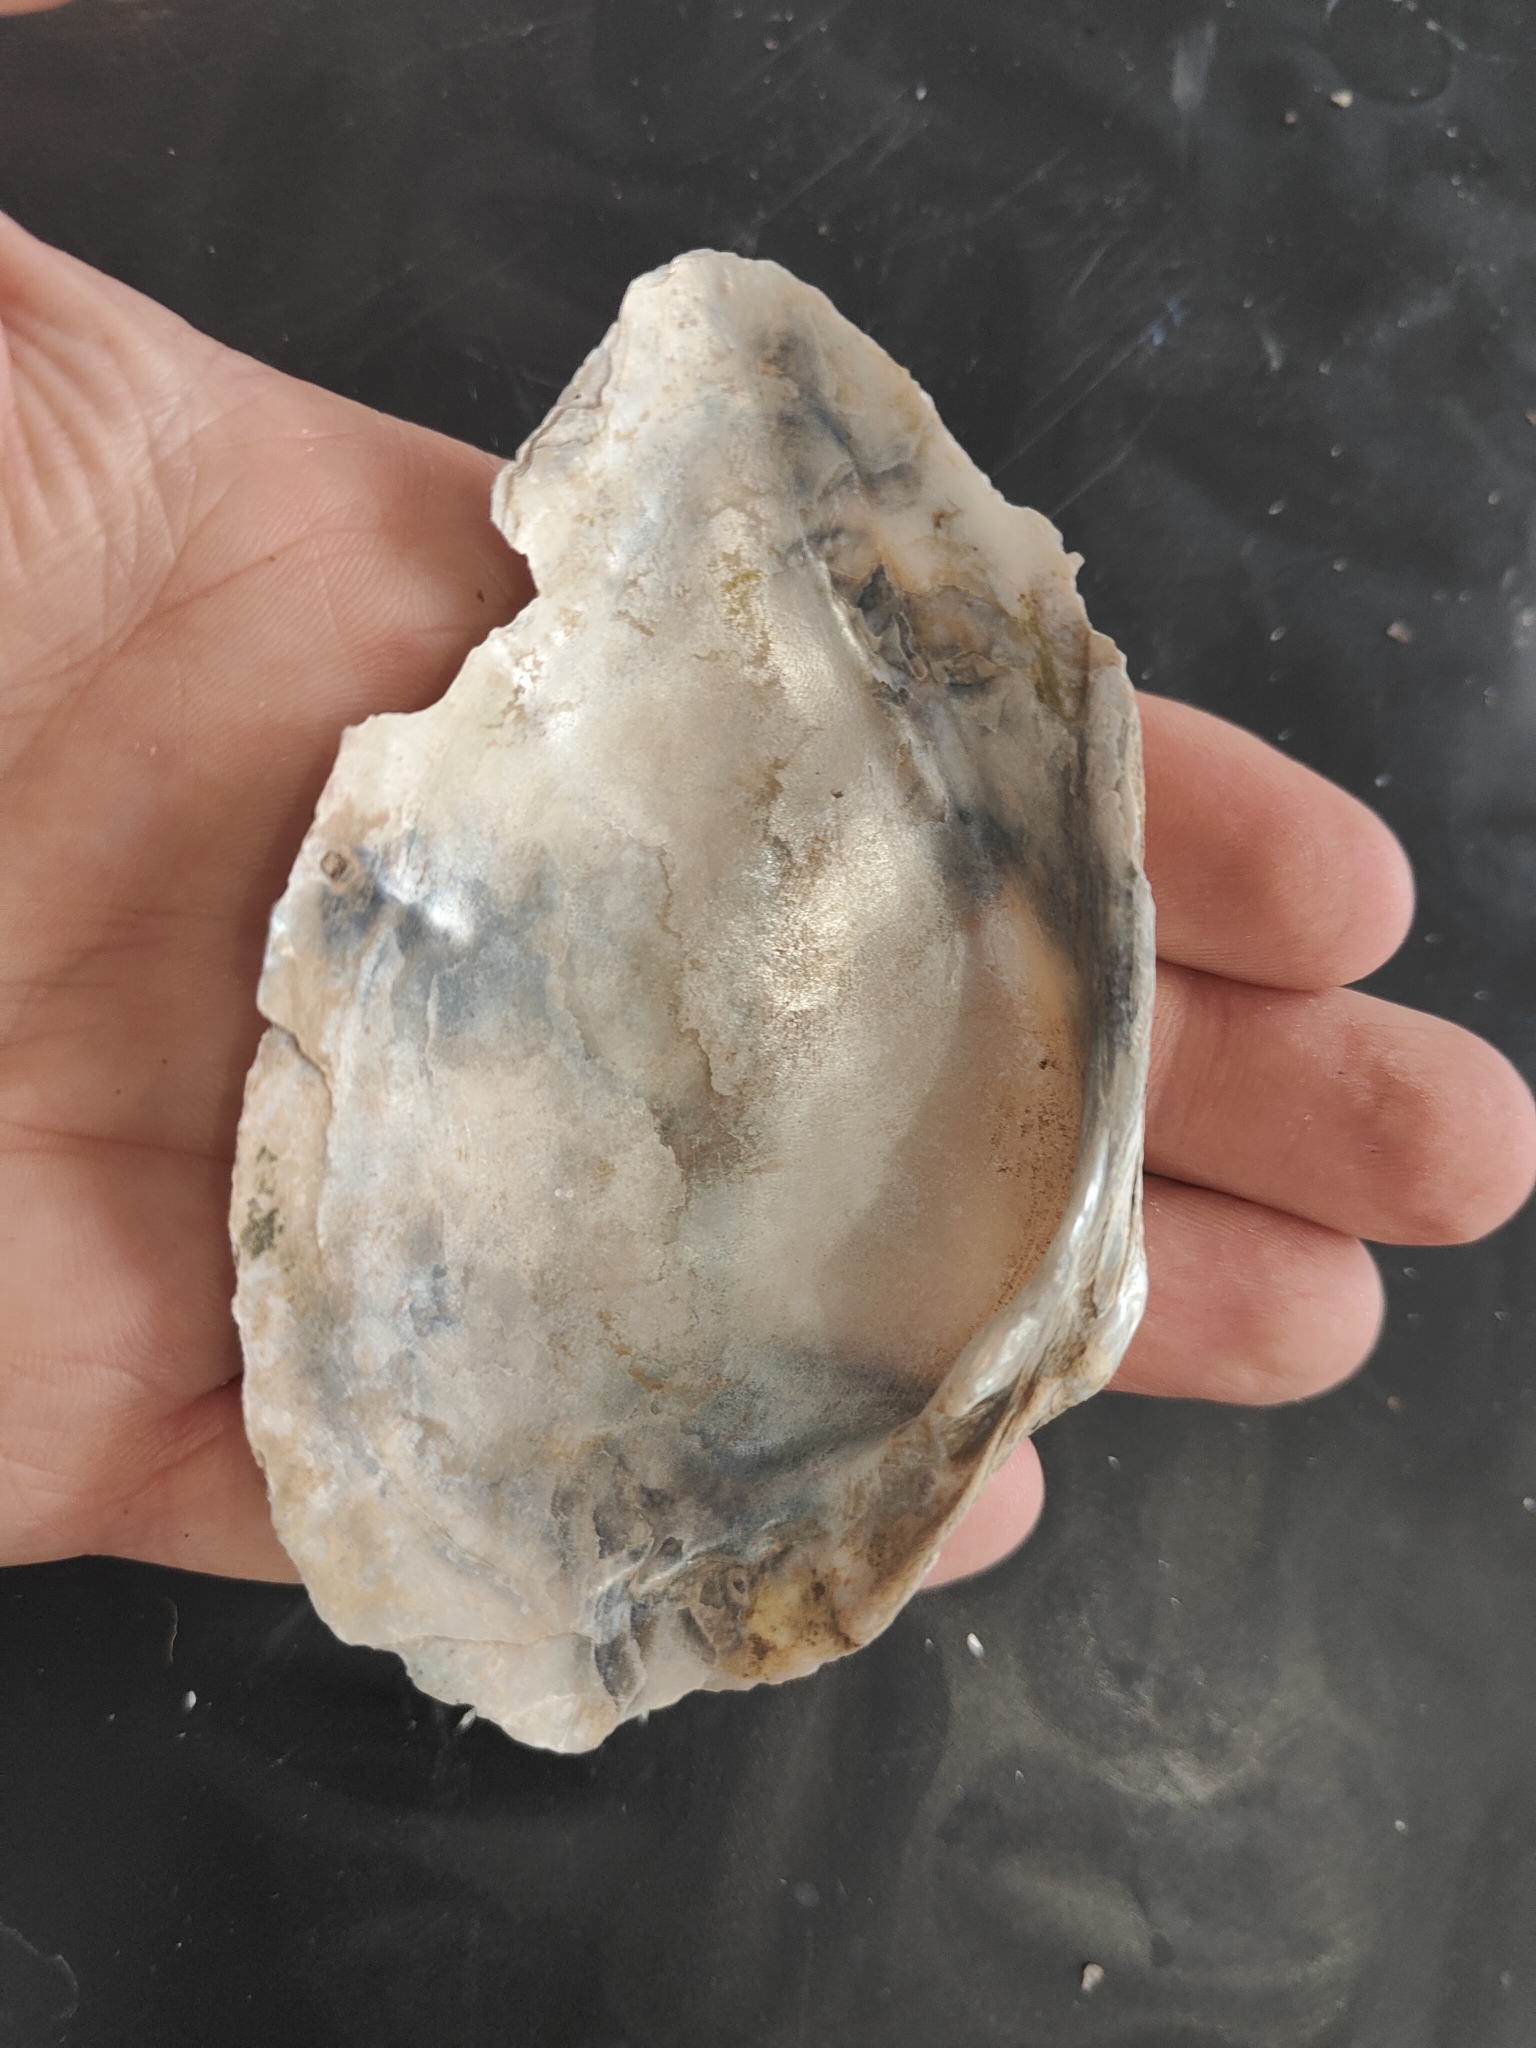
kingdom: Animalia
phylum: Mollusca
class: Bivalvia
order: Unionida
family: Unionidae
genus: Alasmidonta
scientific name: Alasmidonta marginata
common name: Elktoe
